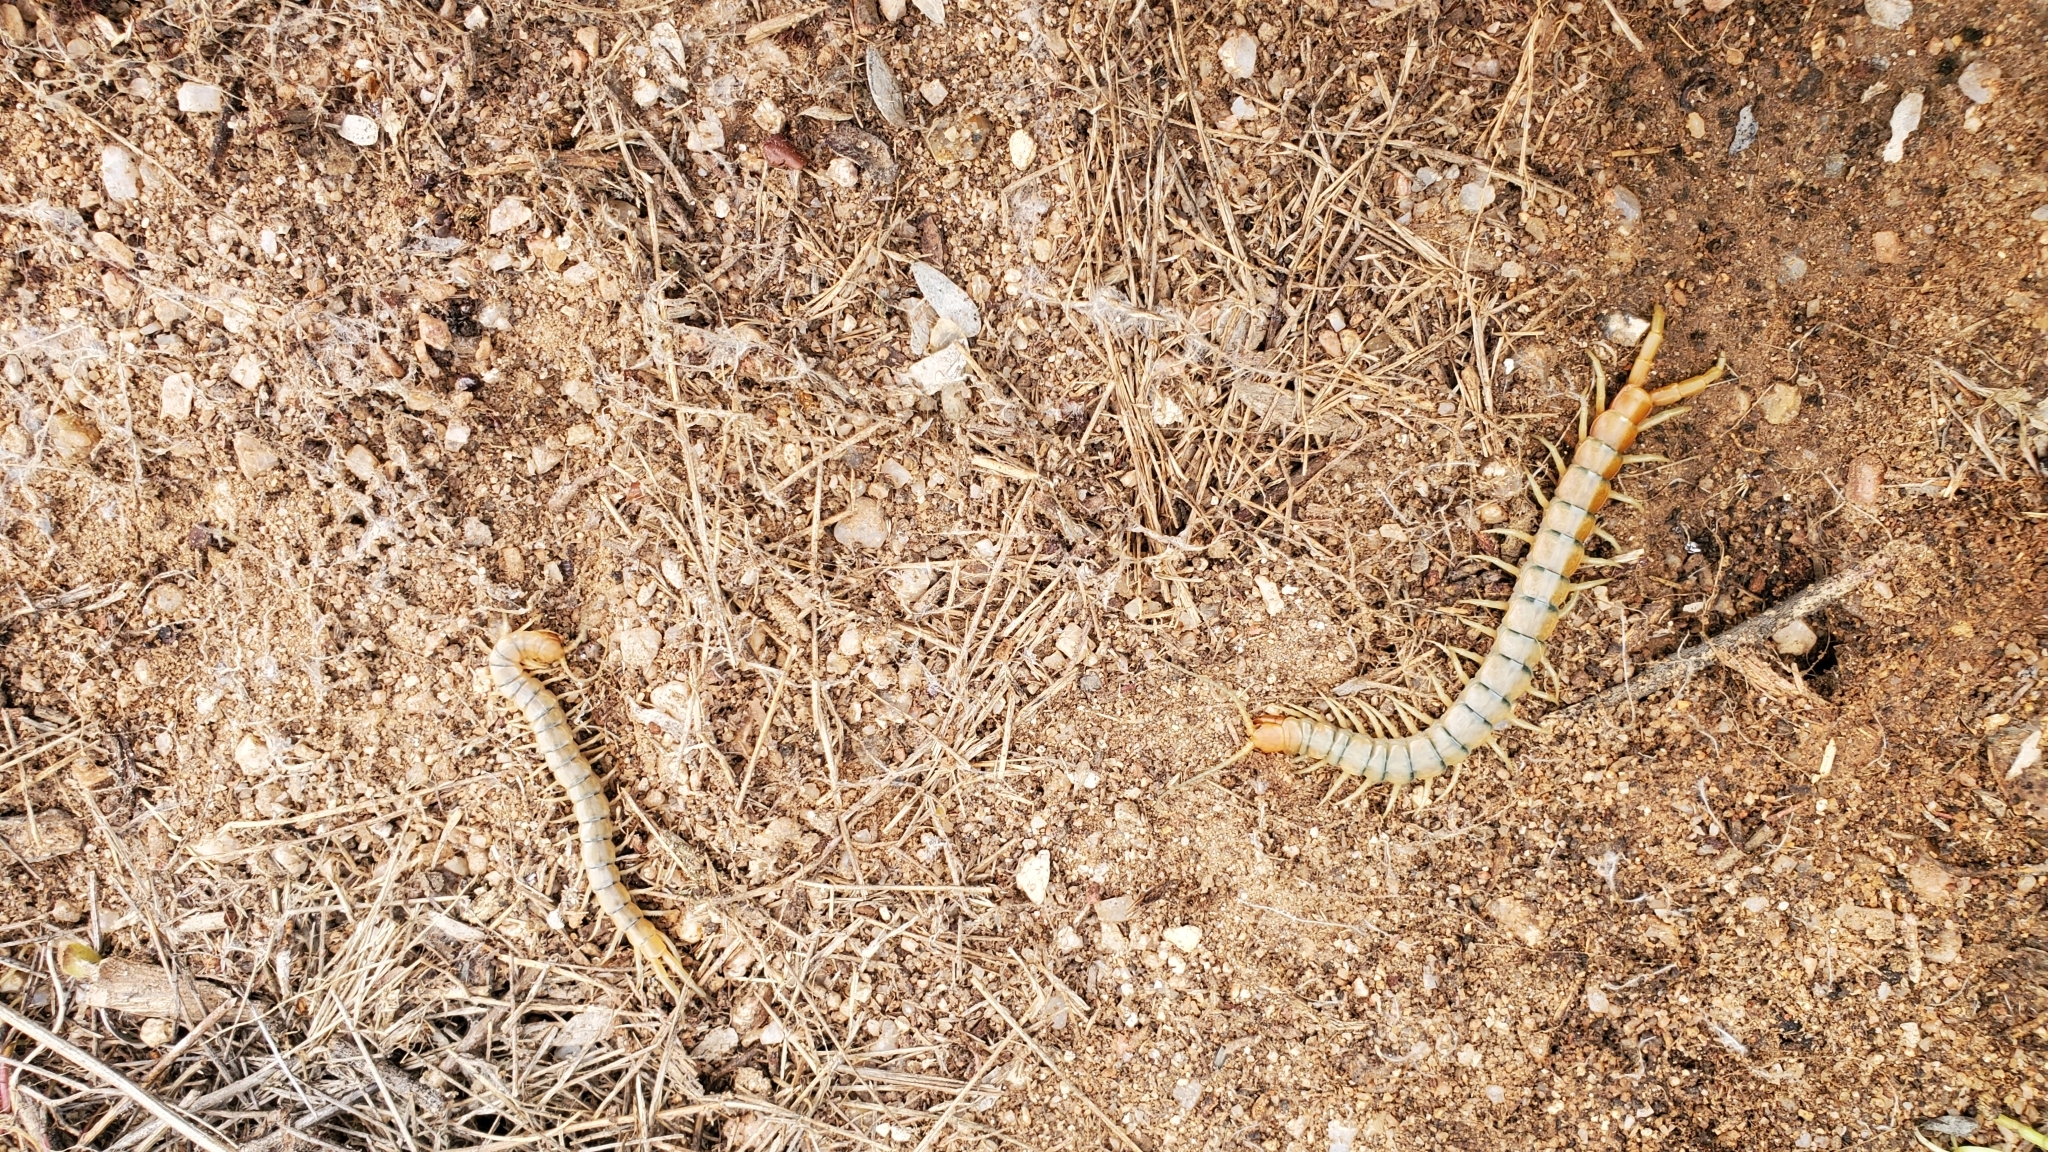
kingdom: Animalia
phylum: Arthropoda
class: Chilopoda
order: Scolopendromorpha
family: Scolopendridae
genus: Scolopendra
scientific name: Scolopendra polymorpha
